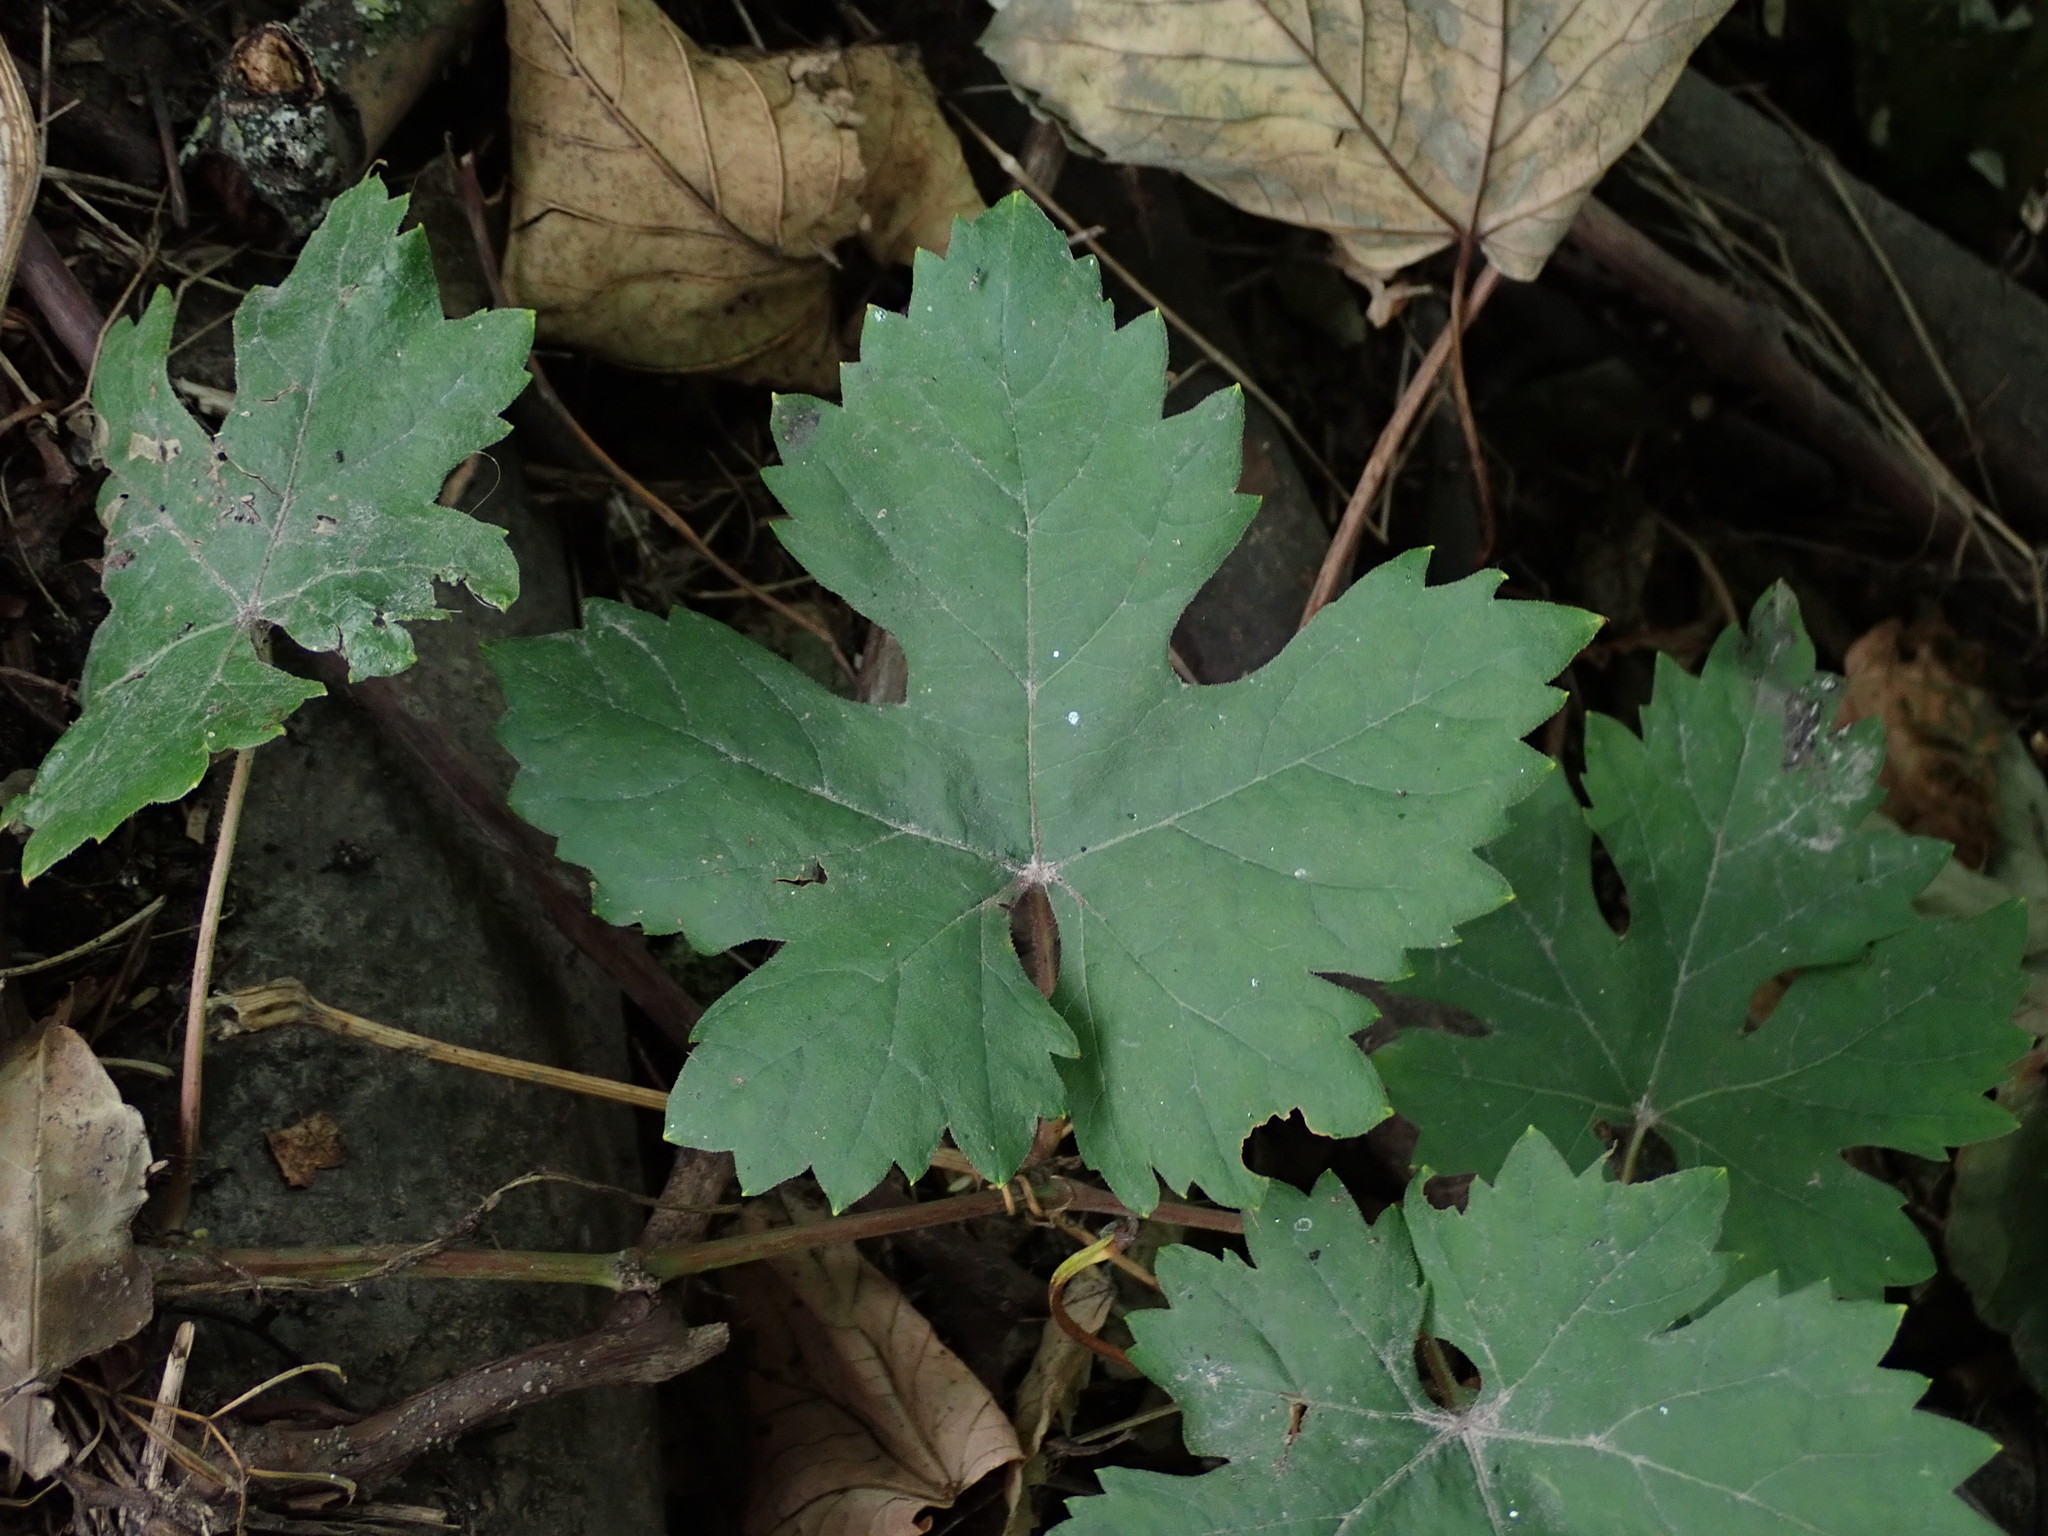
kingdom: Plantae
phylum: Tracheophyta
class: Magnoliopsida
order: Vitales
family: Vitaceae
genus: Vitis
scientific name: Vitis vinifera
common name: Grape-vine
